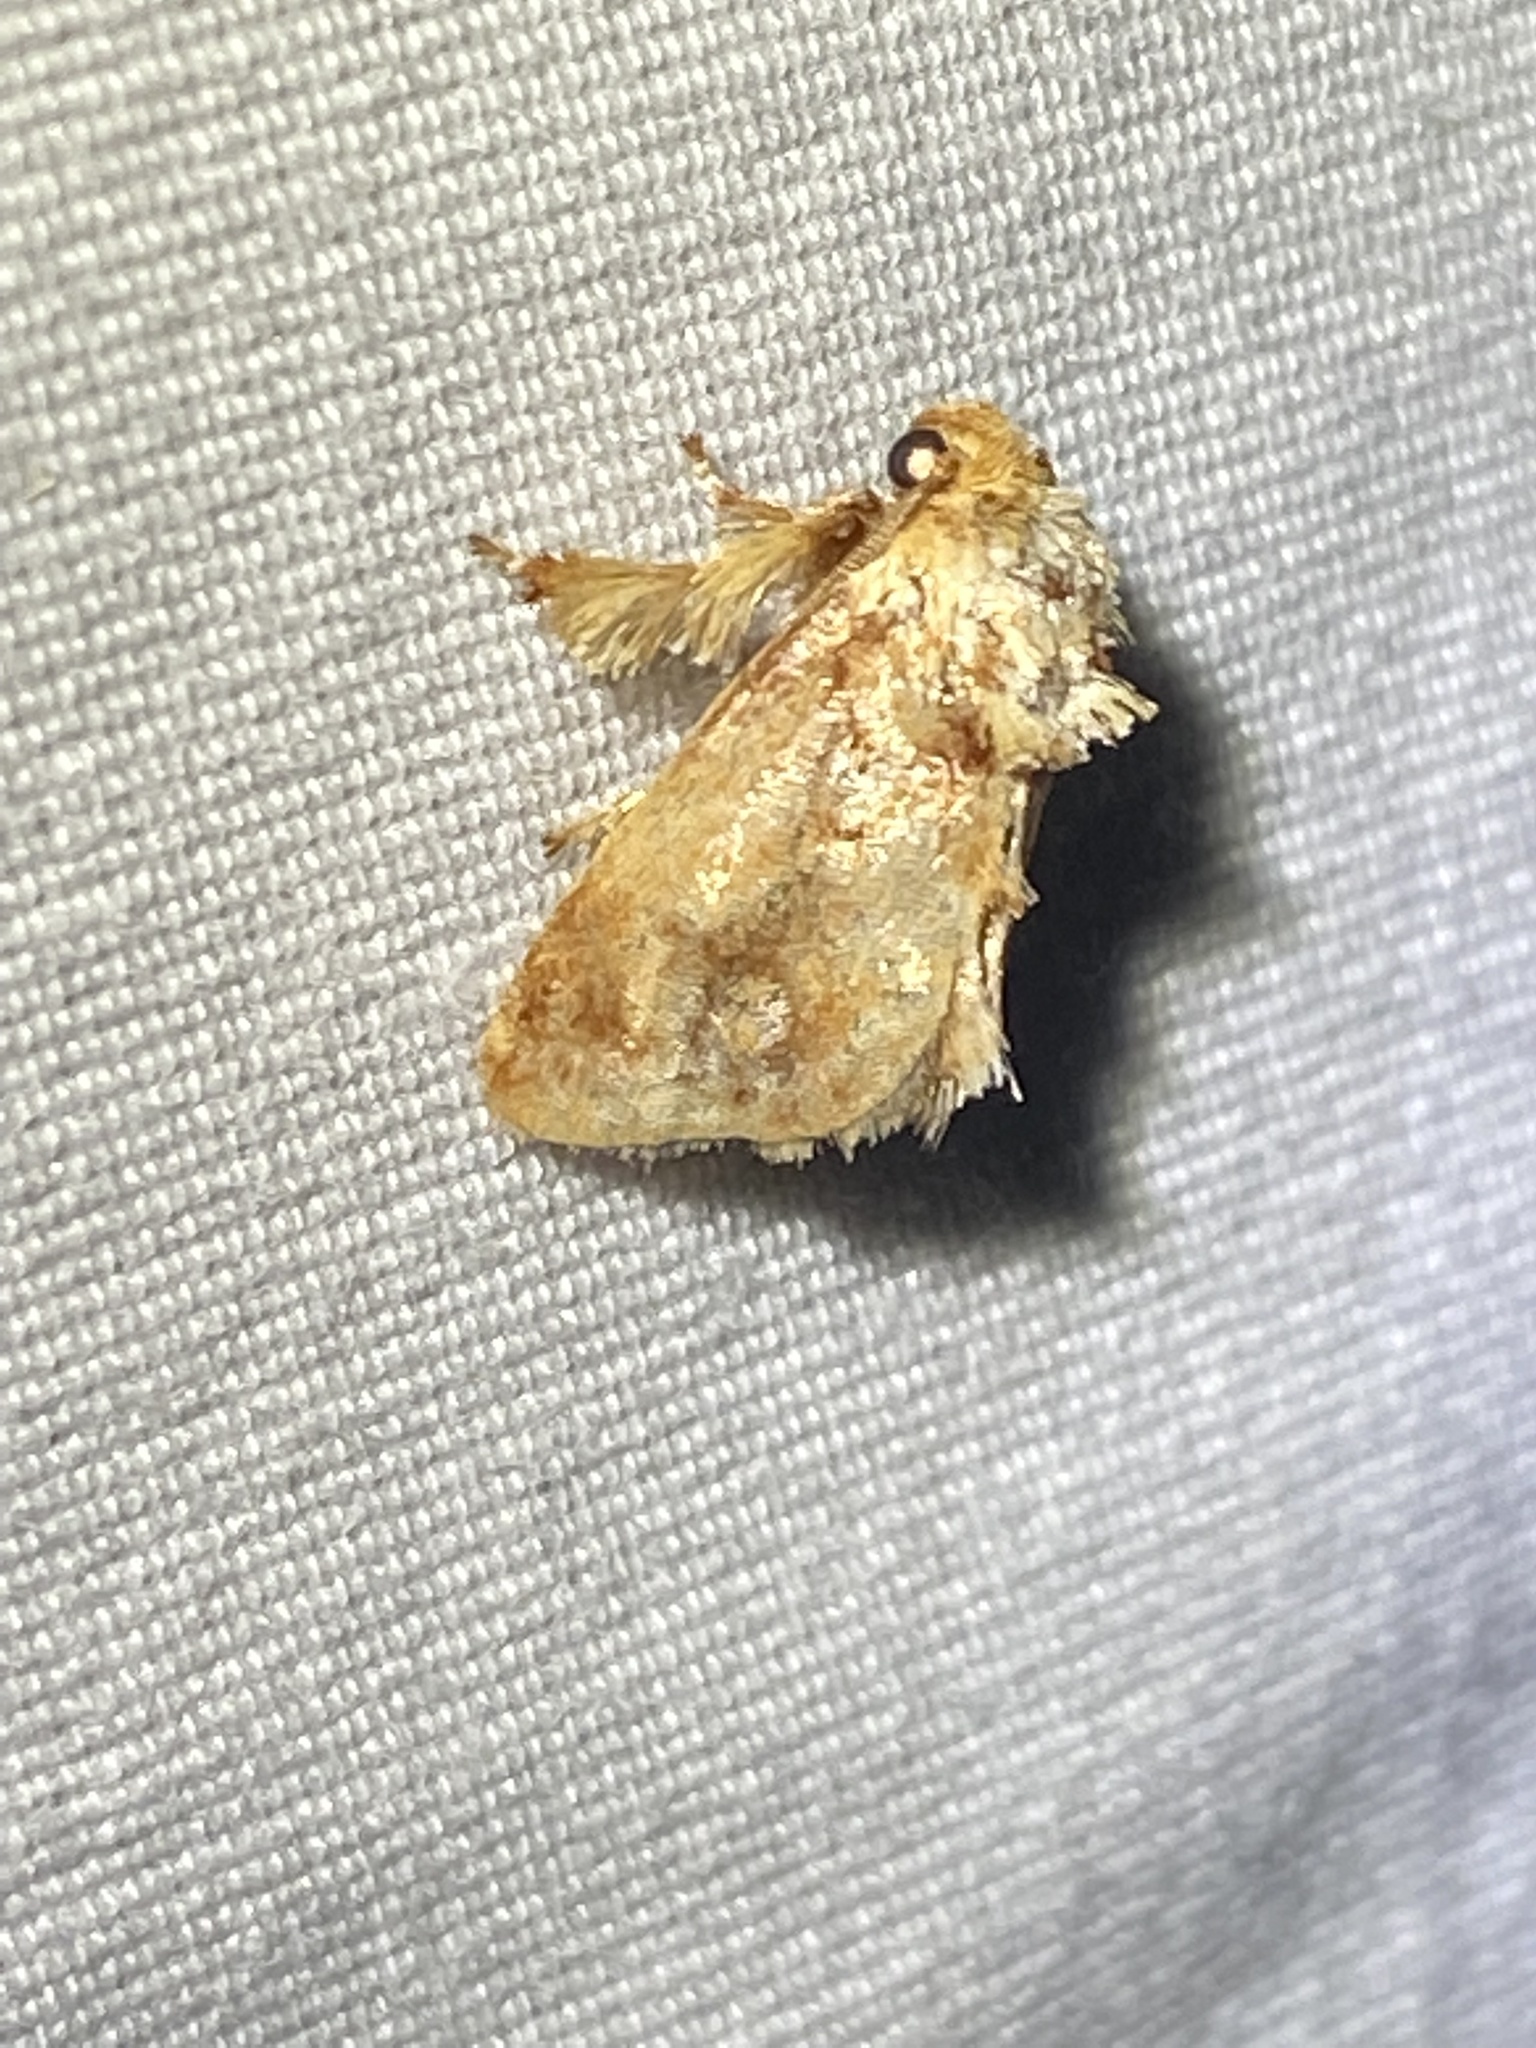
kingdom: Animalia
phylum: Arthropoda
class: Insecta
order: Lepidoptera
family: Limacodidae
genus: Isochaetes
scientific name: Isochaetes beutenmuelleri
